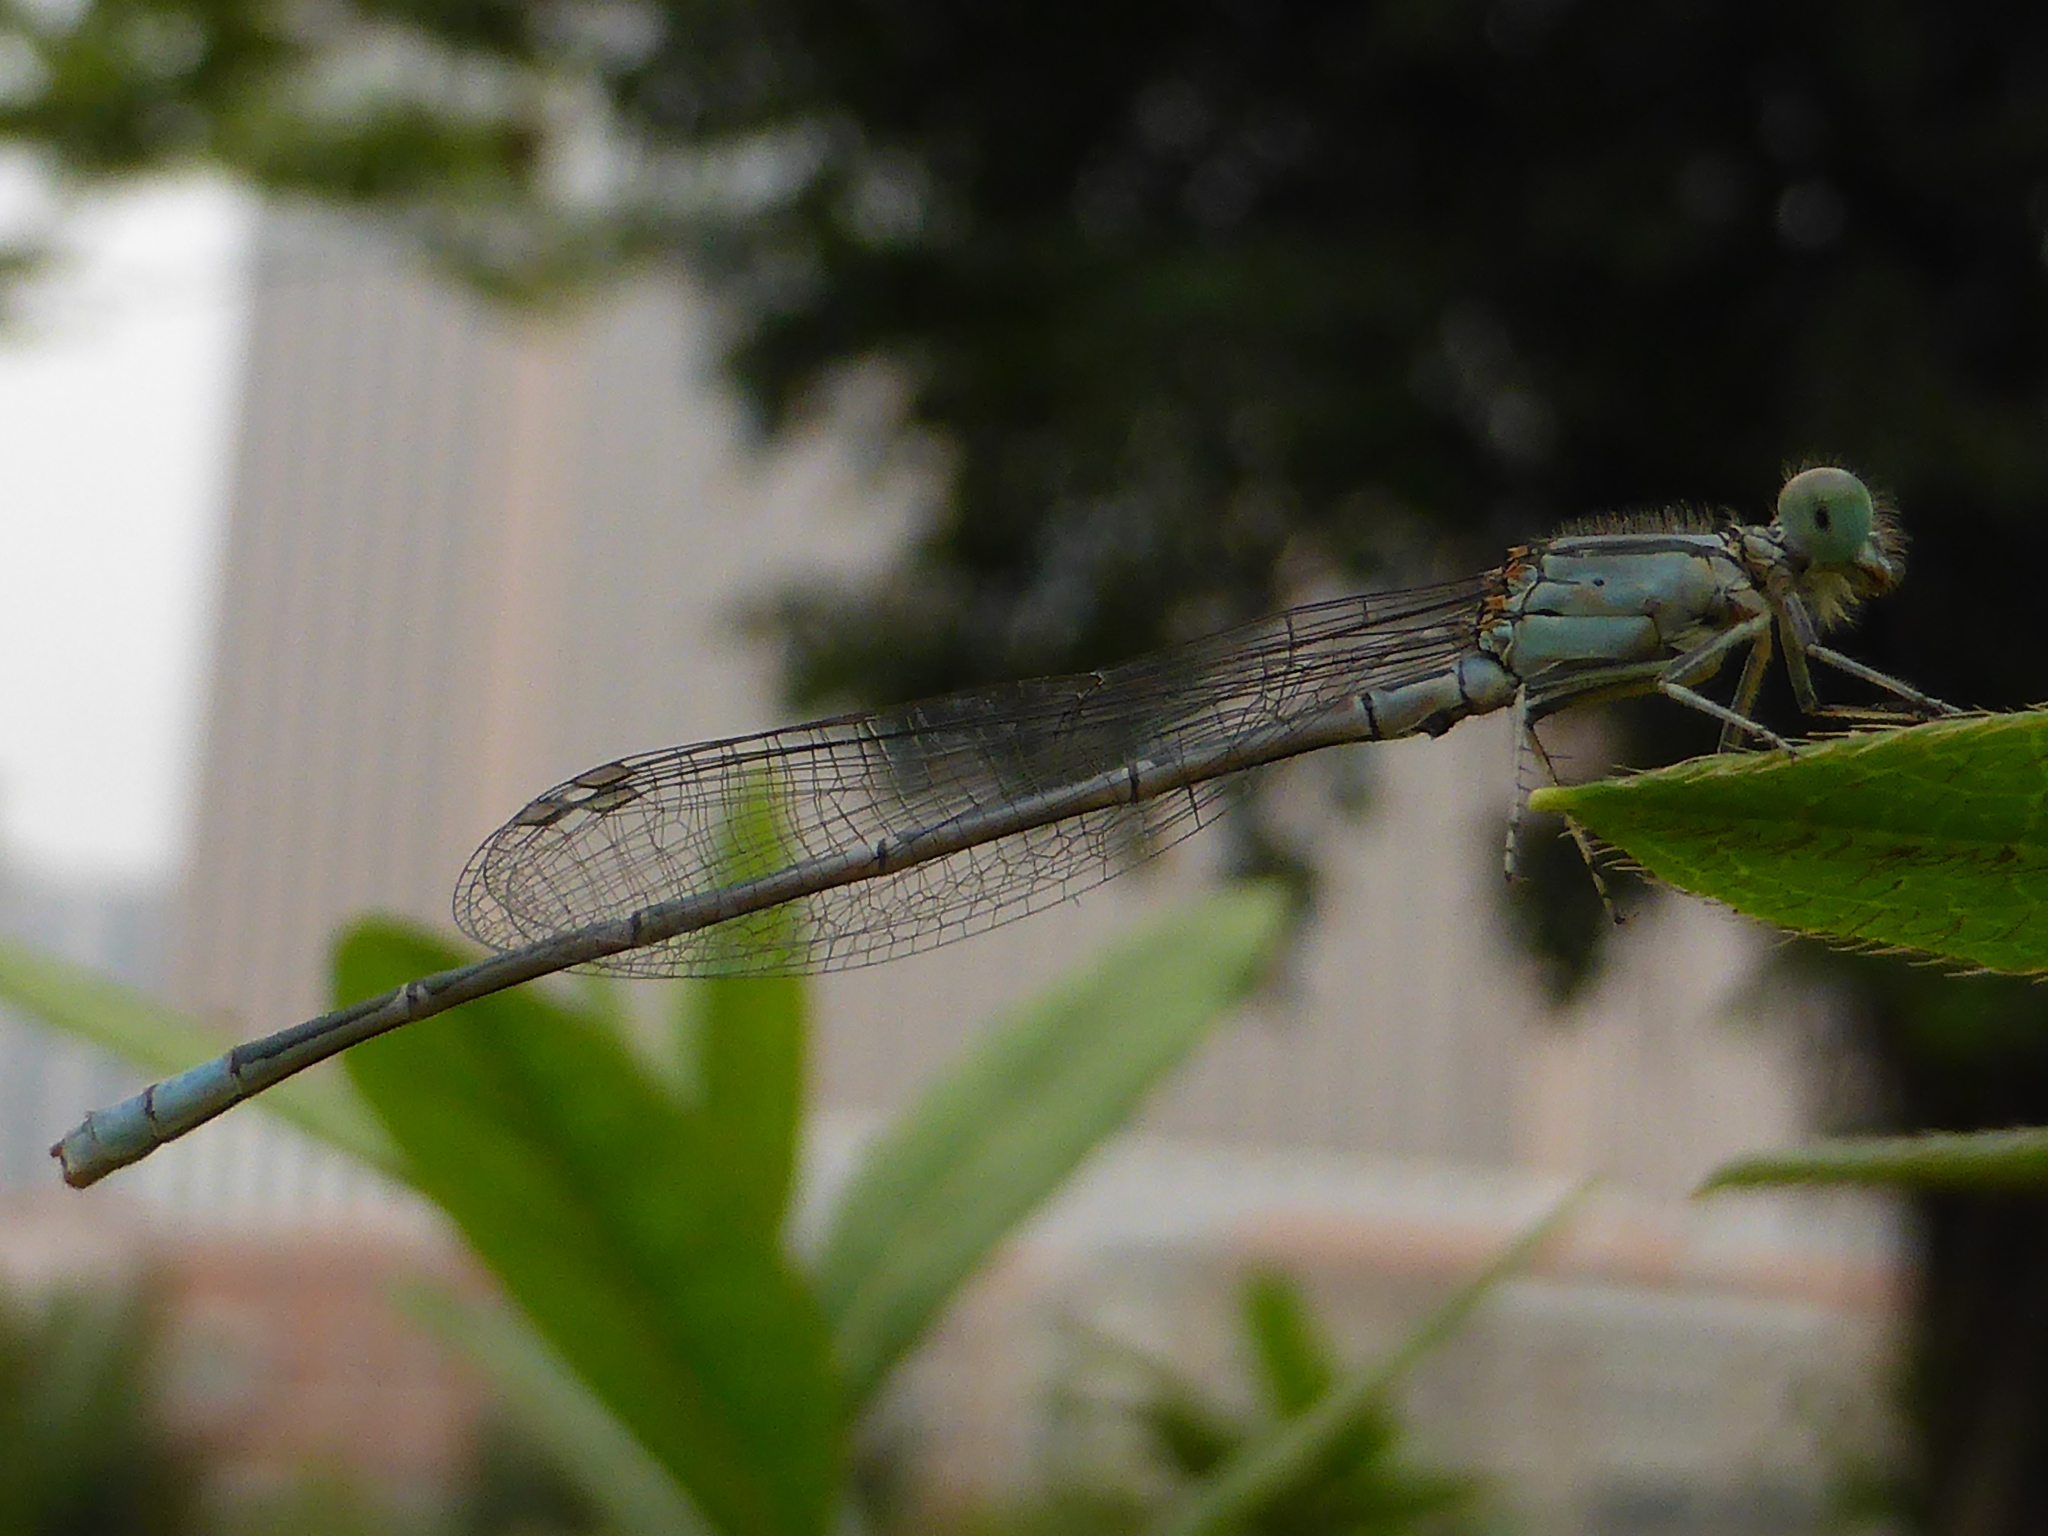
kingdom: Animalia
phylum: Arthropoda
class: Insecta
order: Odonata
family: Coenagrionidae
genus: Ischnura
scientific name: Ischnura senegalensis
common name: Tropical bluetail
